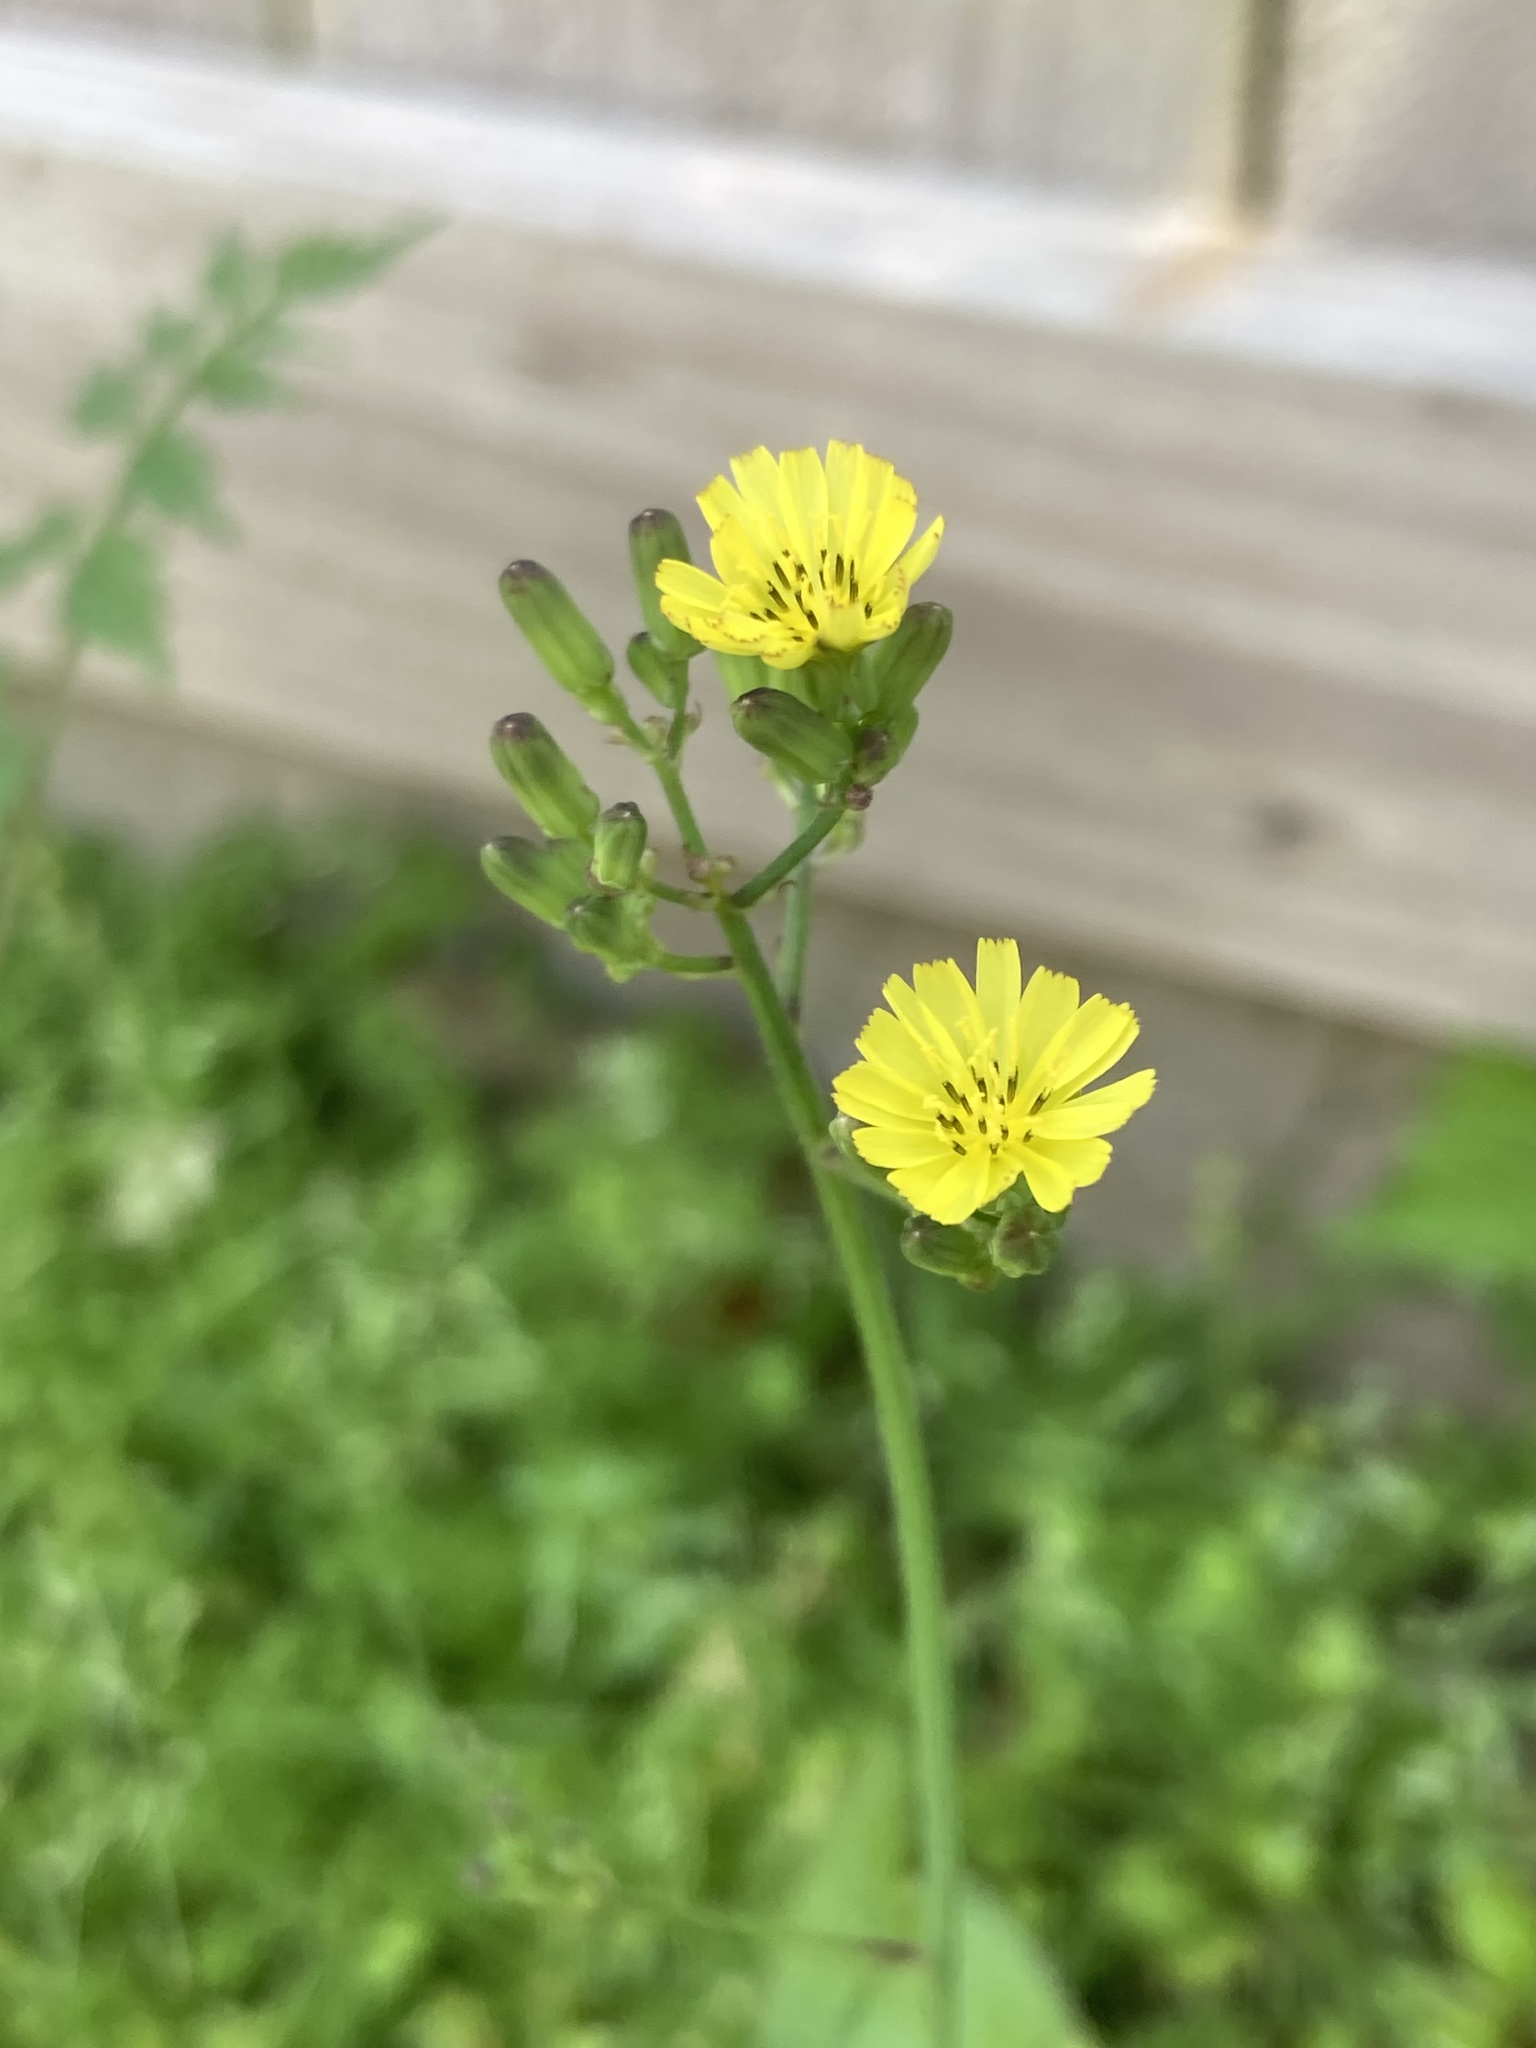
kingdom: Plantae
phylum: Tracheophyta
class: Magnoliopsida
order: Asterales
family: Asteraceae
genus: Youngia
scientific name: Youngia japonica
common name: Oriental false hawksbeard
